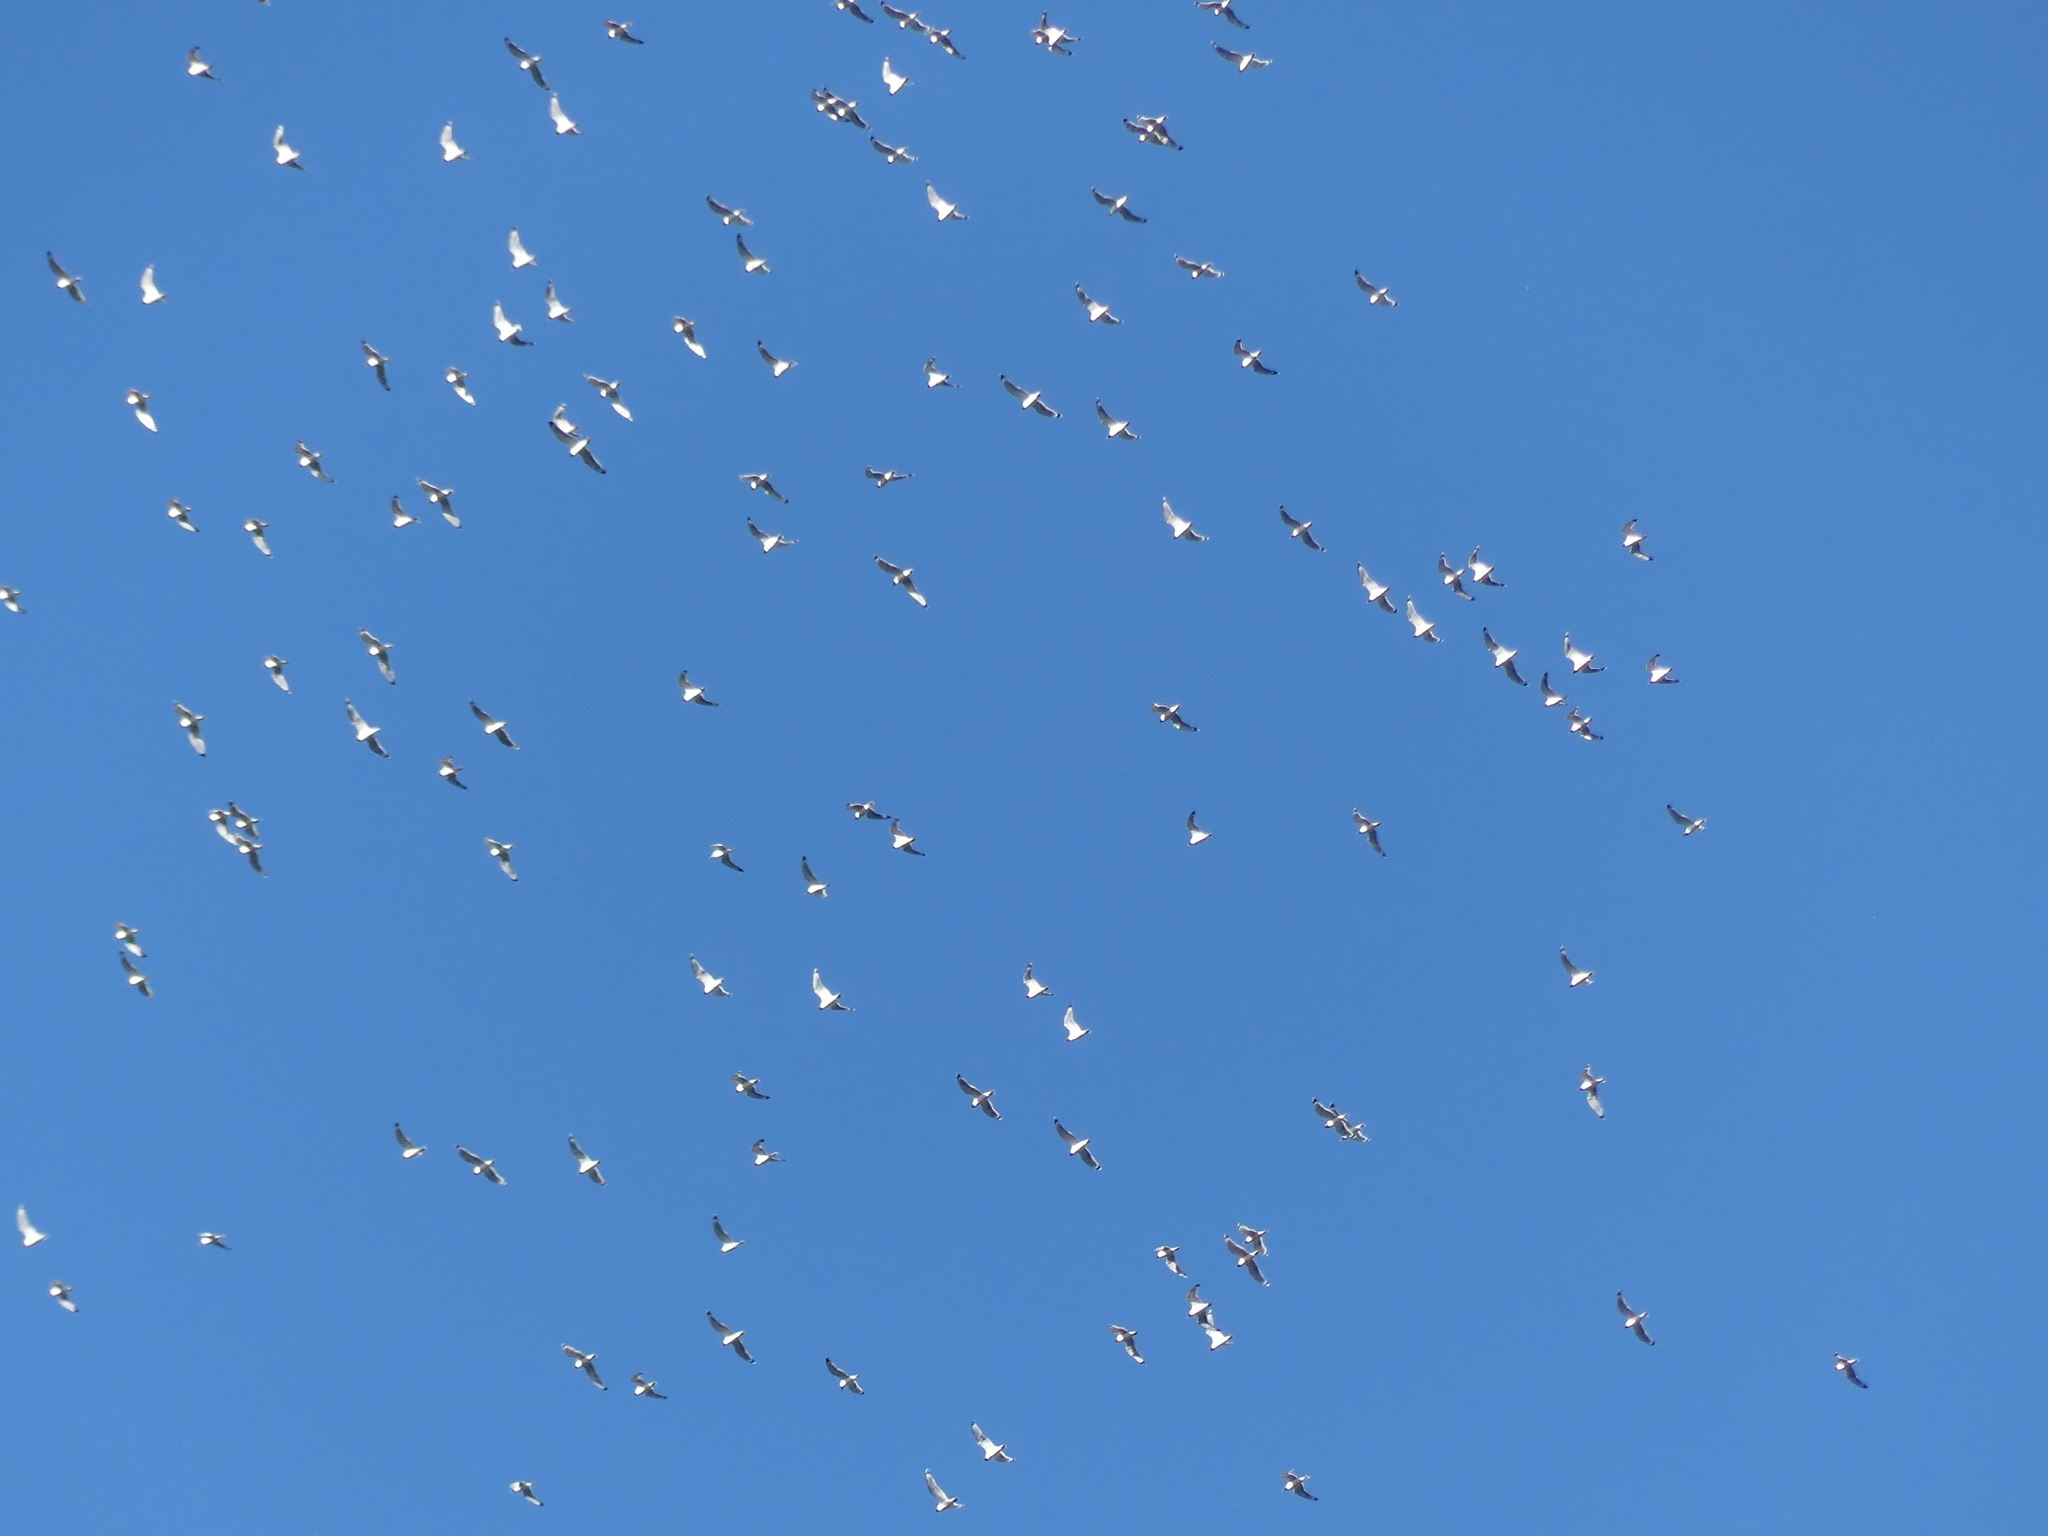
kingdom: Animalia
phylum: Chordata
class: Aves
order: Charadriiformes
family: Laridae
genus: Leucophaeus
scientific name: Leucophaeus pipixcan
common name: Franklin's gull
